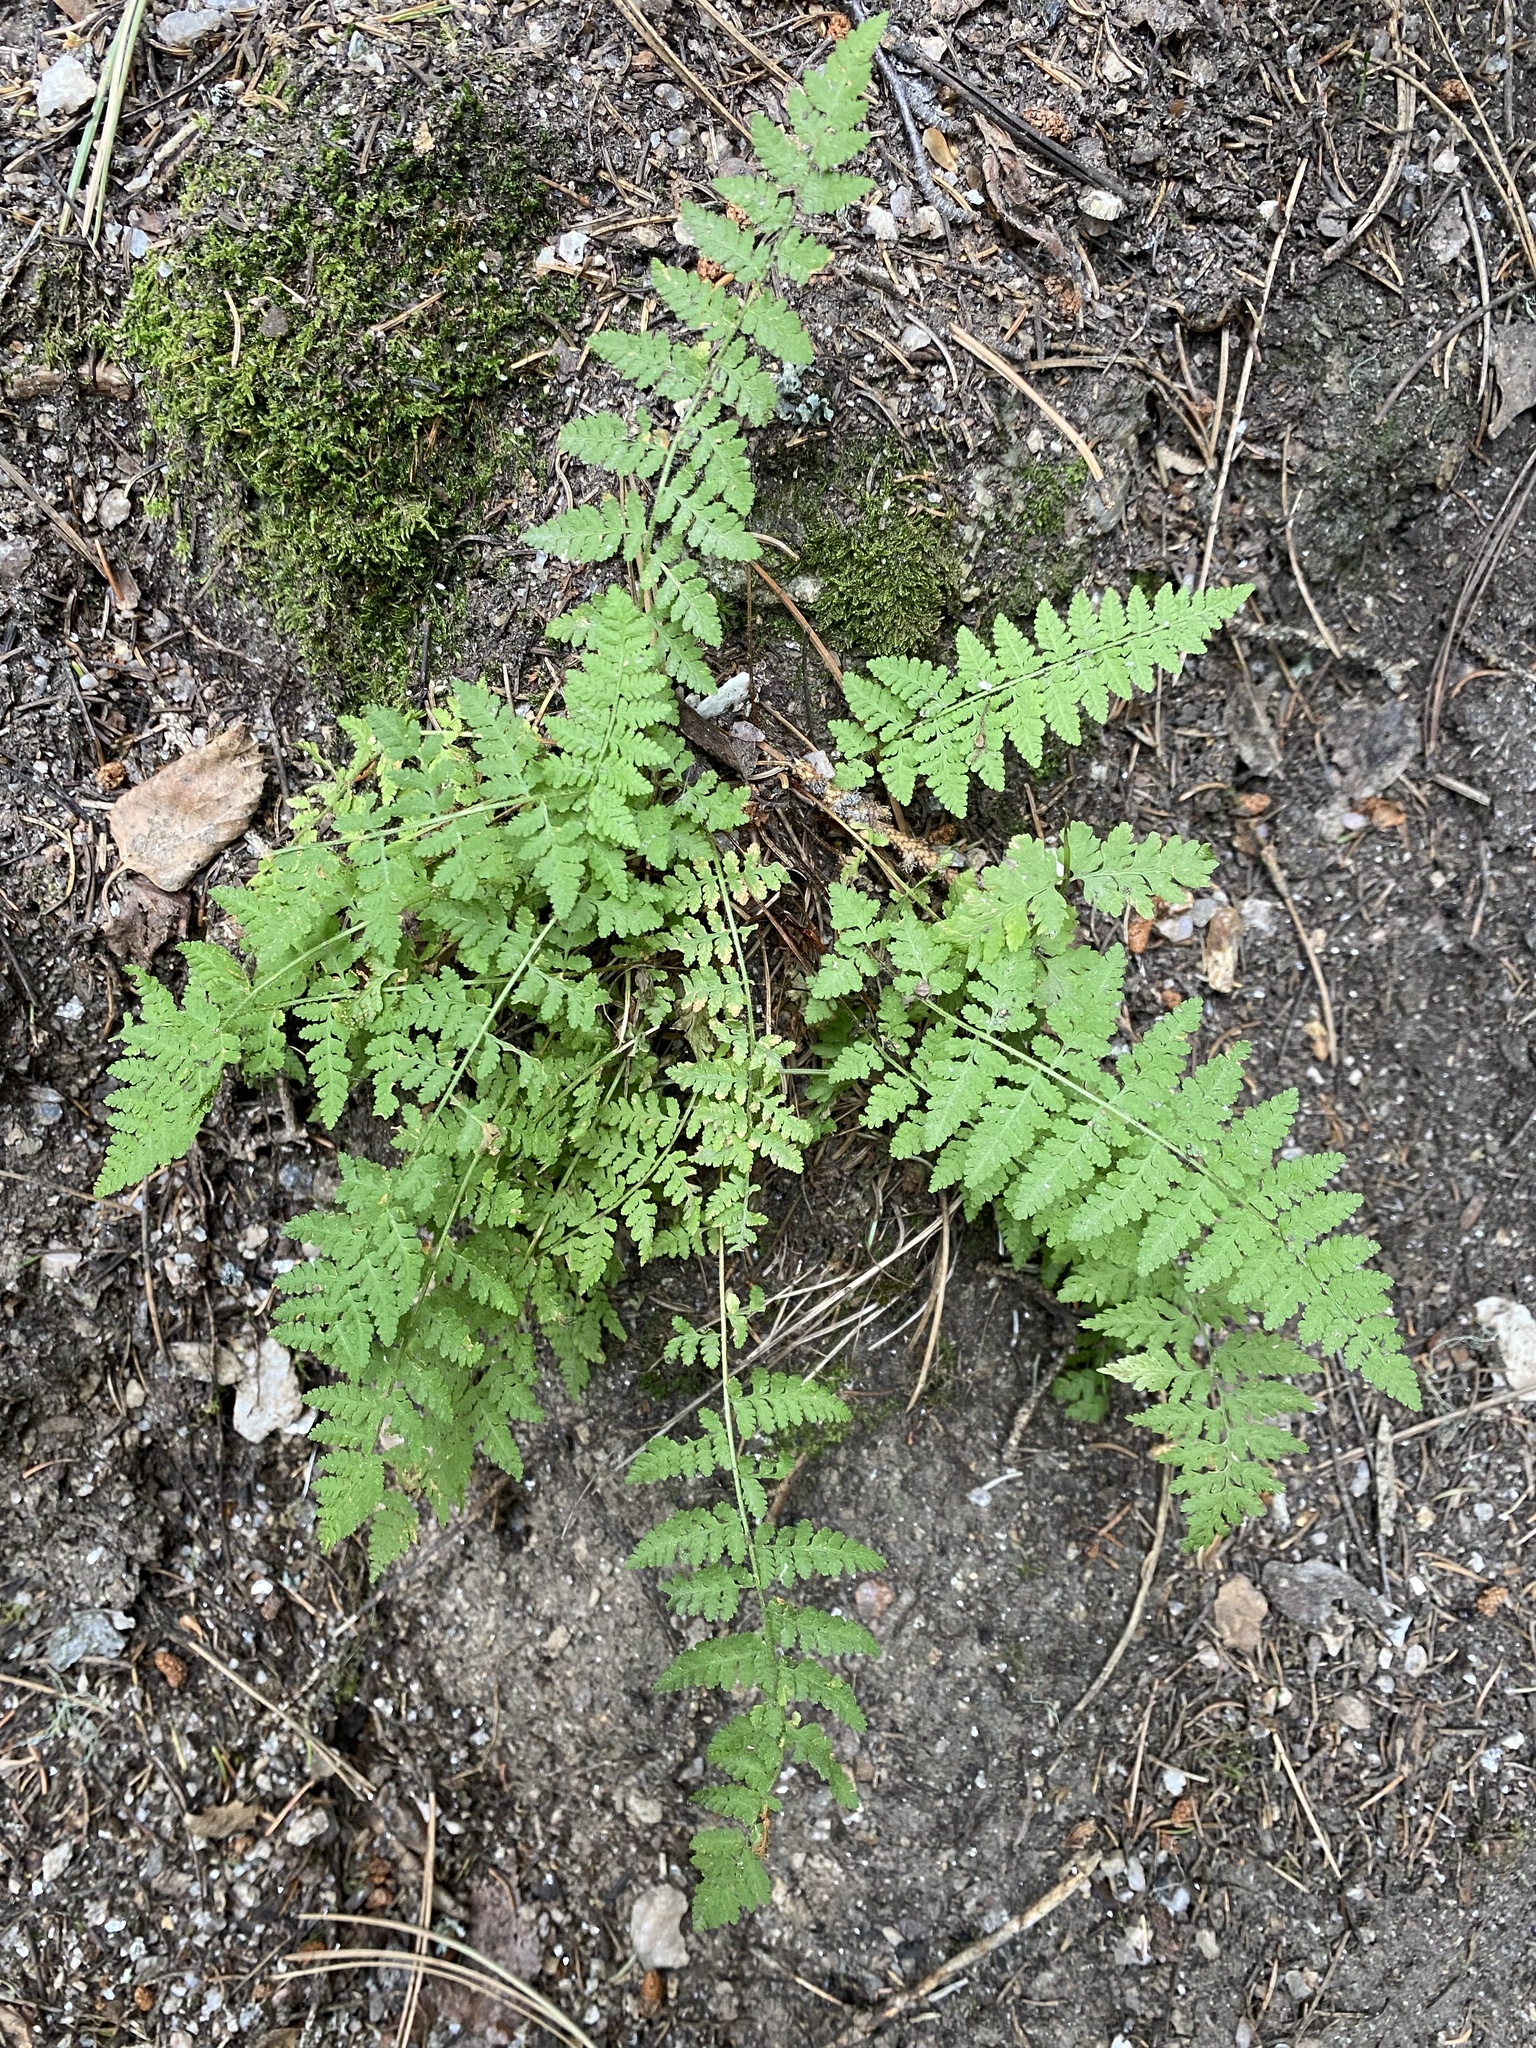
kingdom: Plantae
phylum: Tracheophyta
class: Polypodiopsida
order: Polypodiales
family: Woodsiaceae
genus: Physematium
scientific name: Physematium scopulinum
